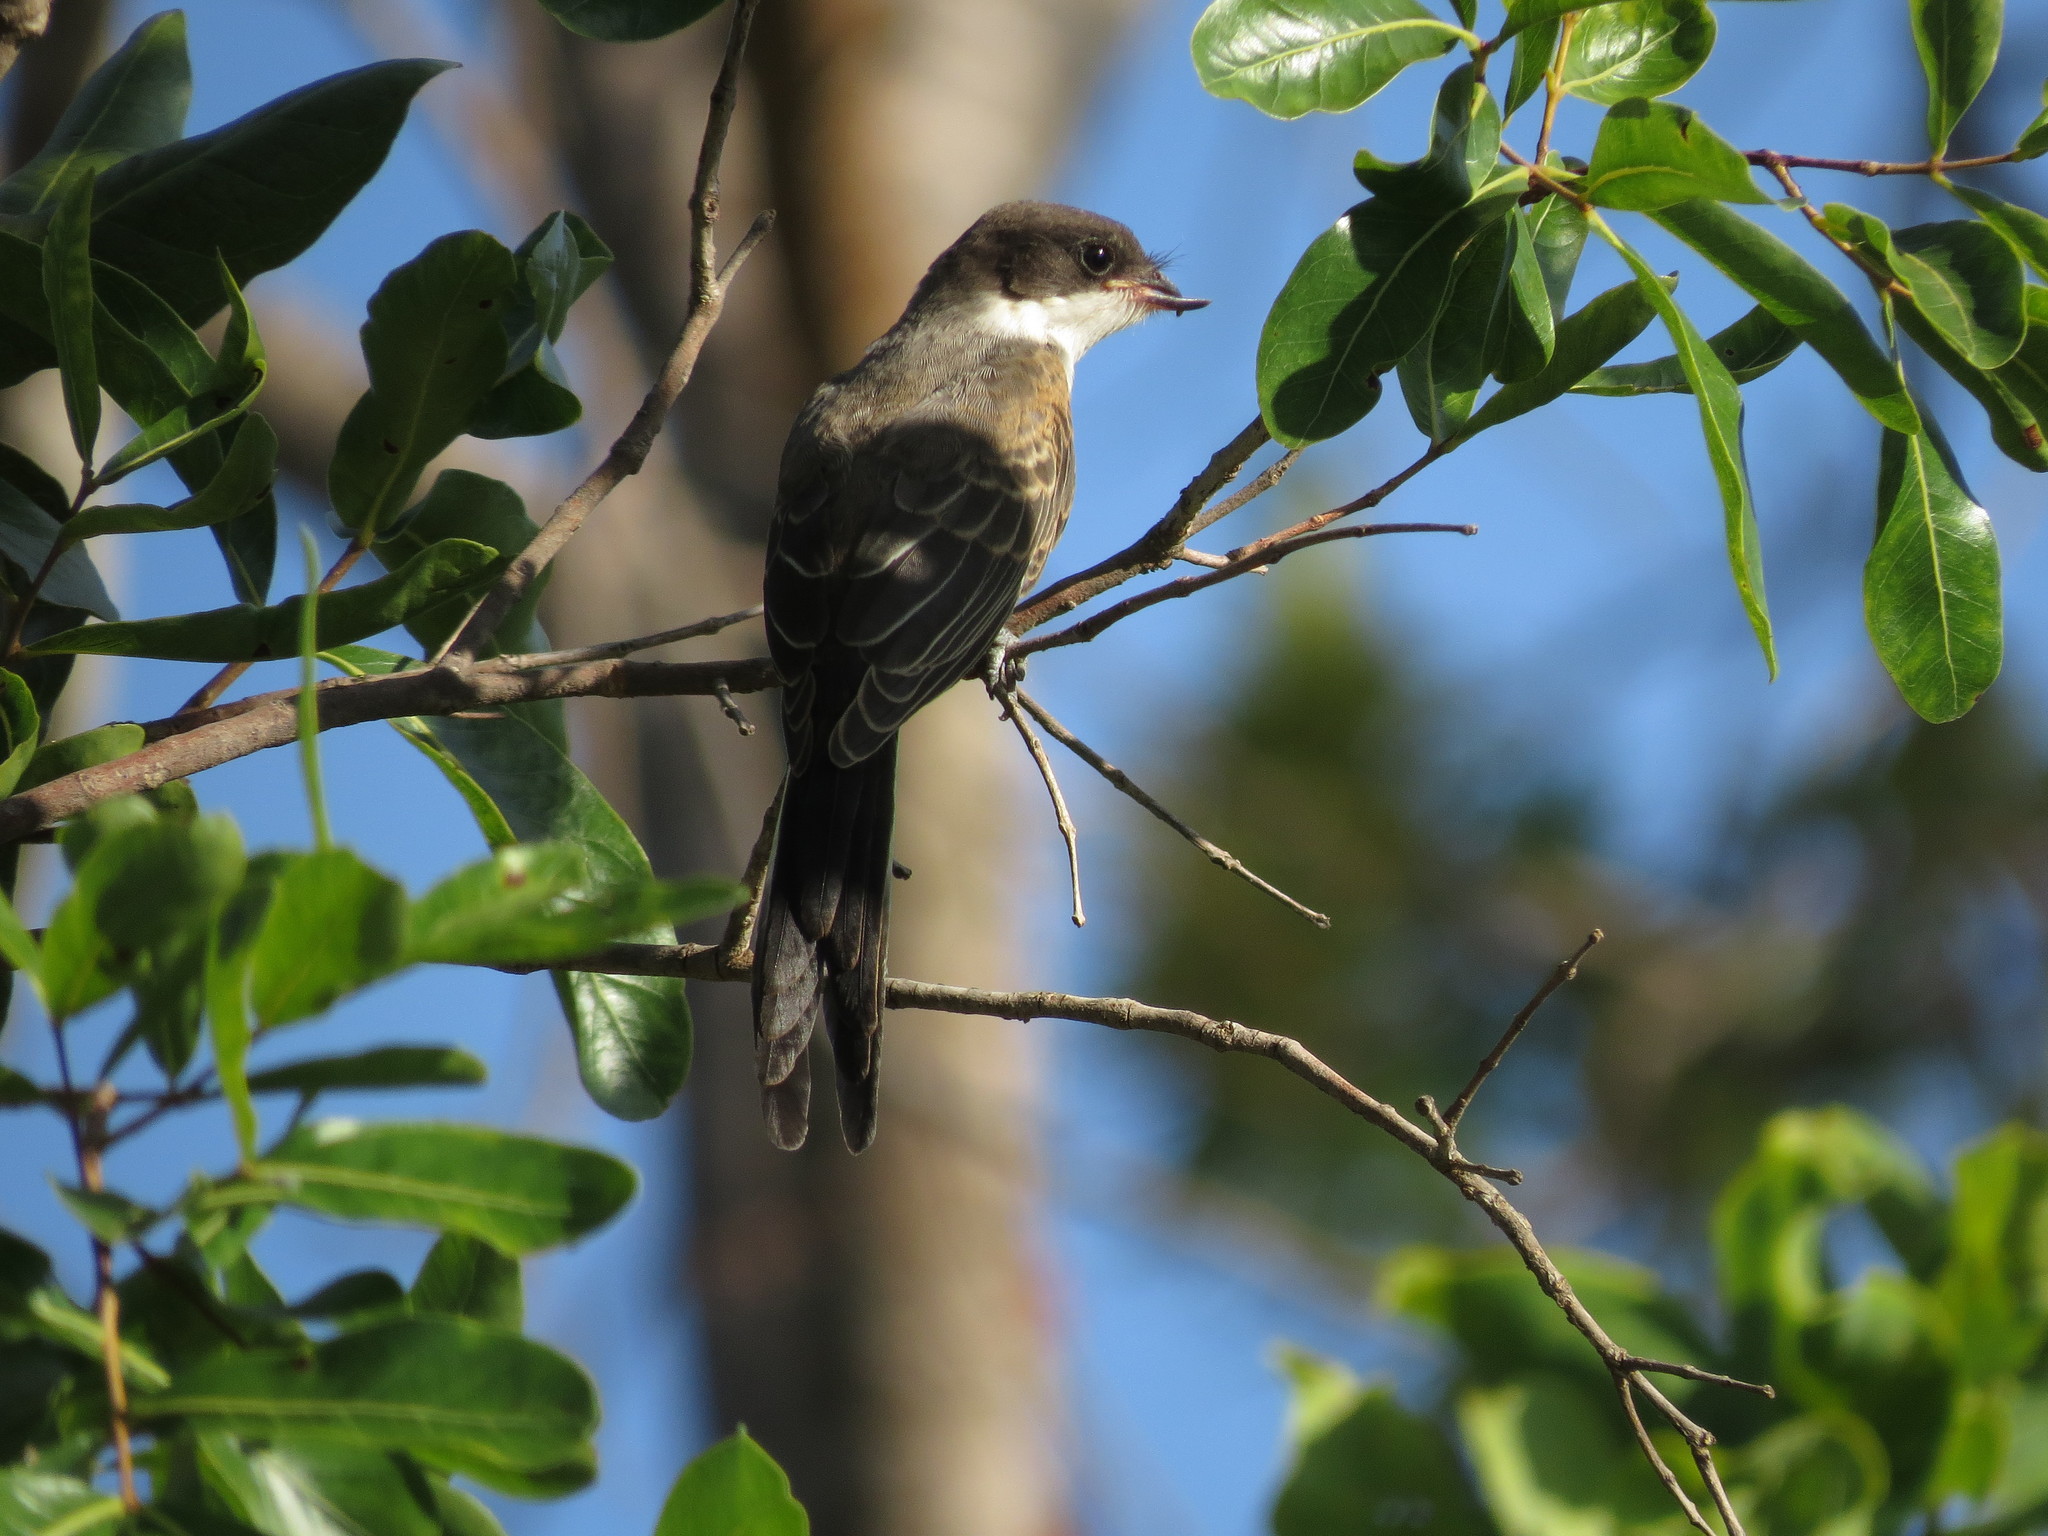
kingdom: Animalia
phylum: Chordata
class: Aves
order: Passeriformes
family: Tyrannidae
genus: Tyrannus
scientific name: Tyrannus savana
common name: Fork-tailed flycatcher
